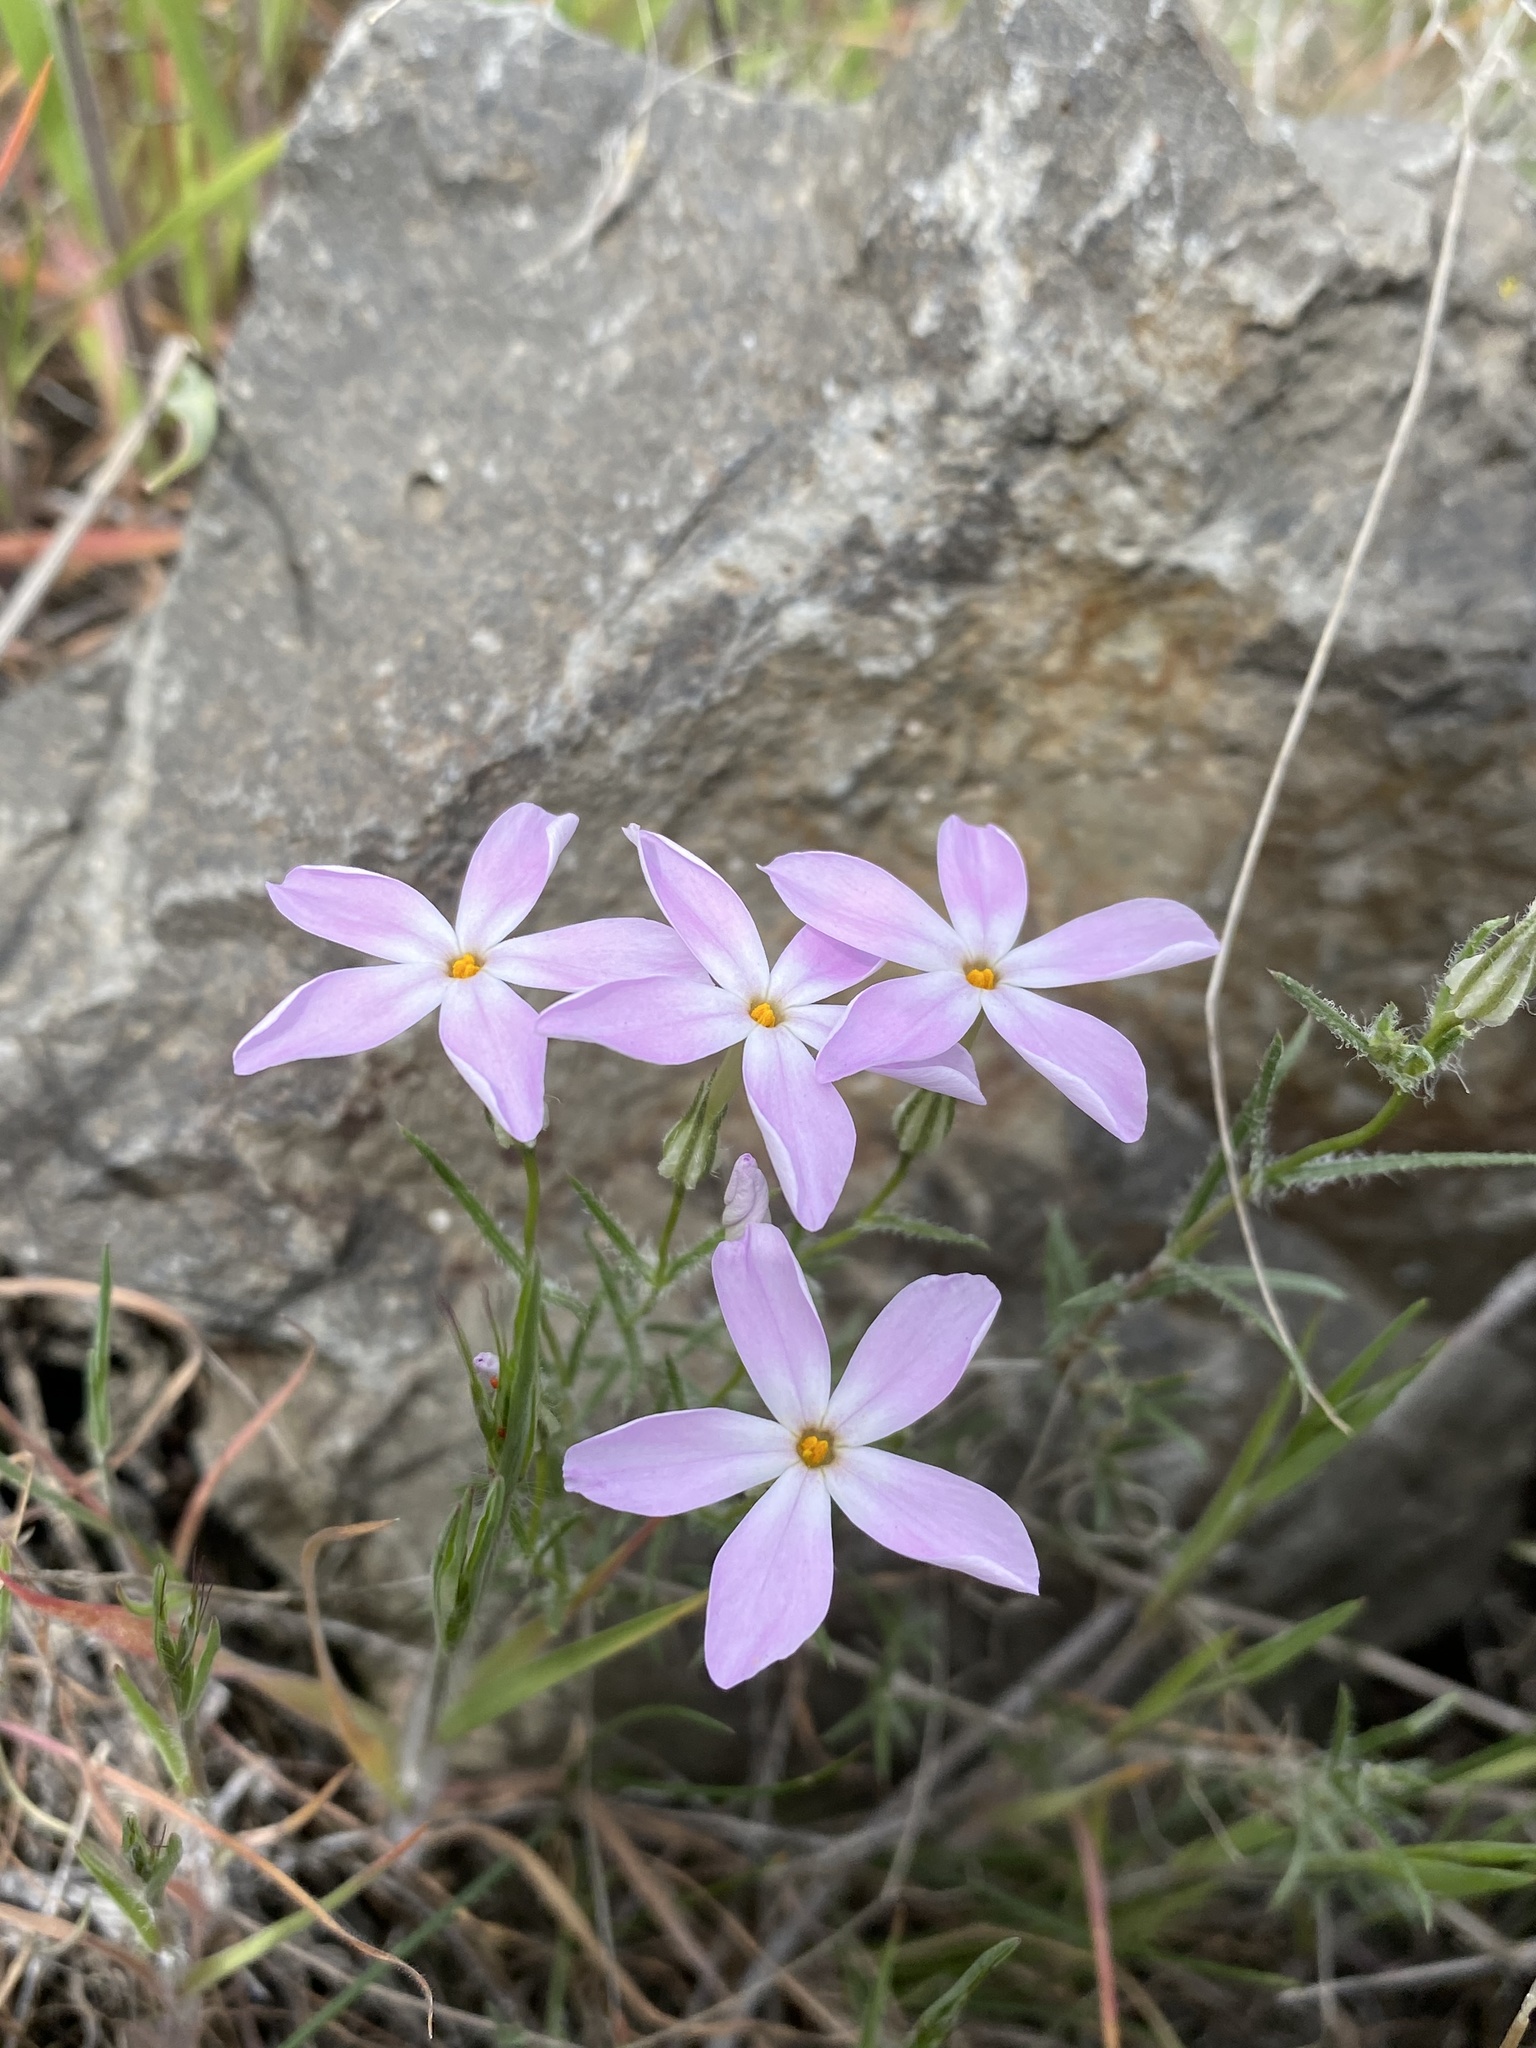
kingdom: Plantae
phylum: Tracheophyta
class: Magnoliopsida
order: Ericales
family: Polemoniaceae
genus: Phlox
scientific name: Phlox longifolia
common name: Longleaf phlox
